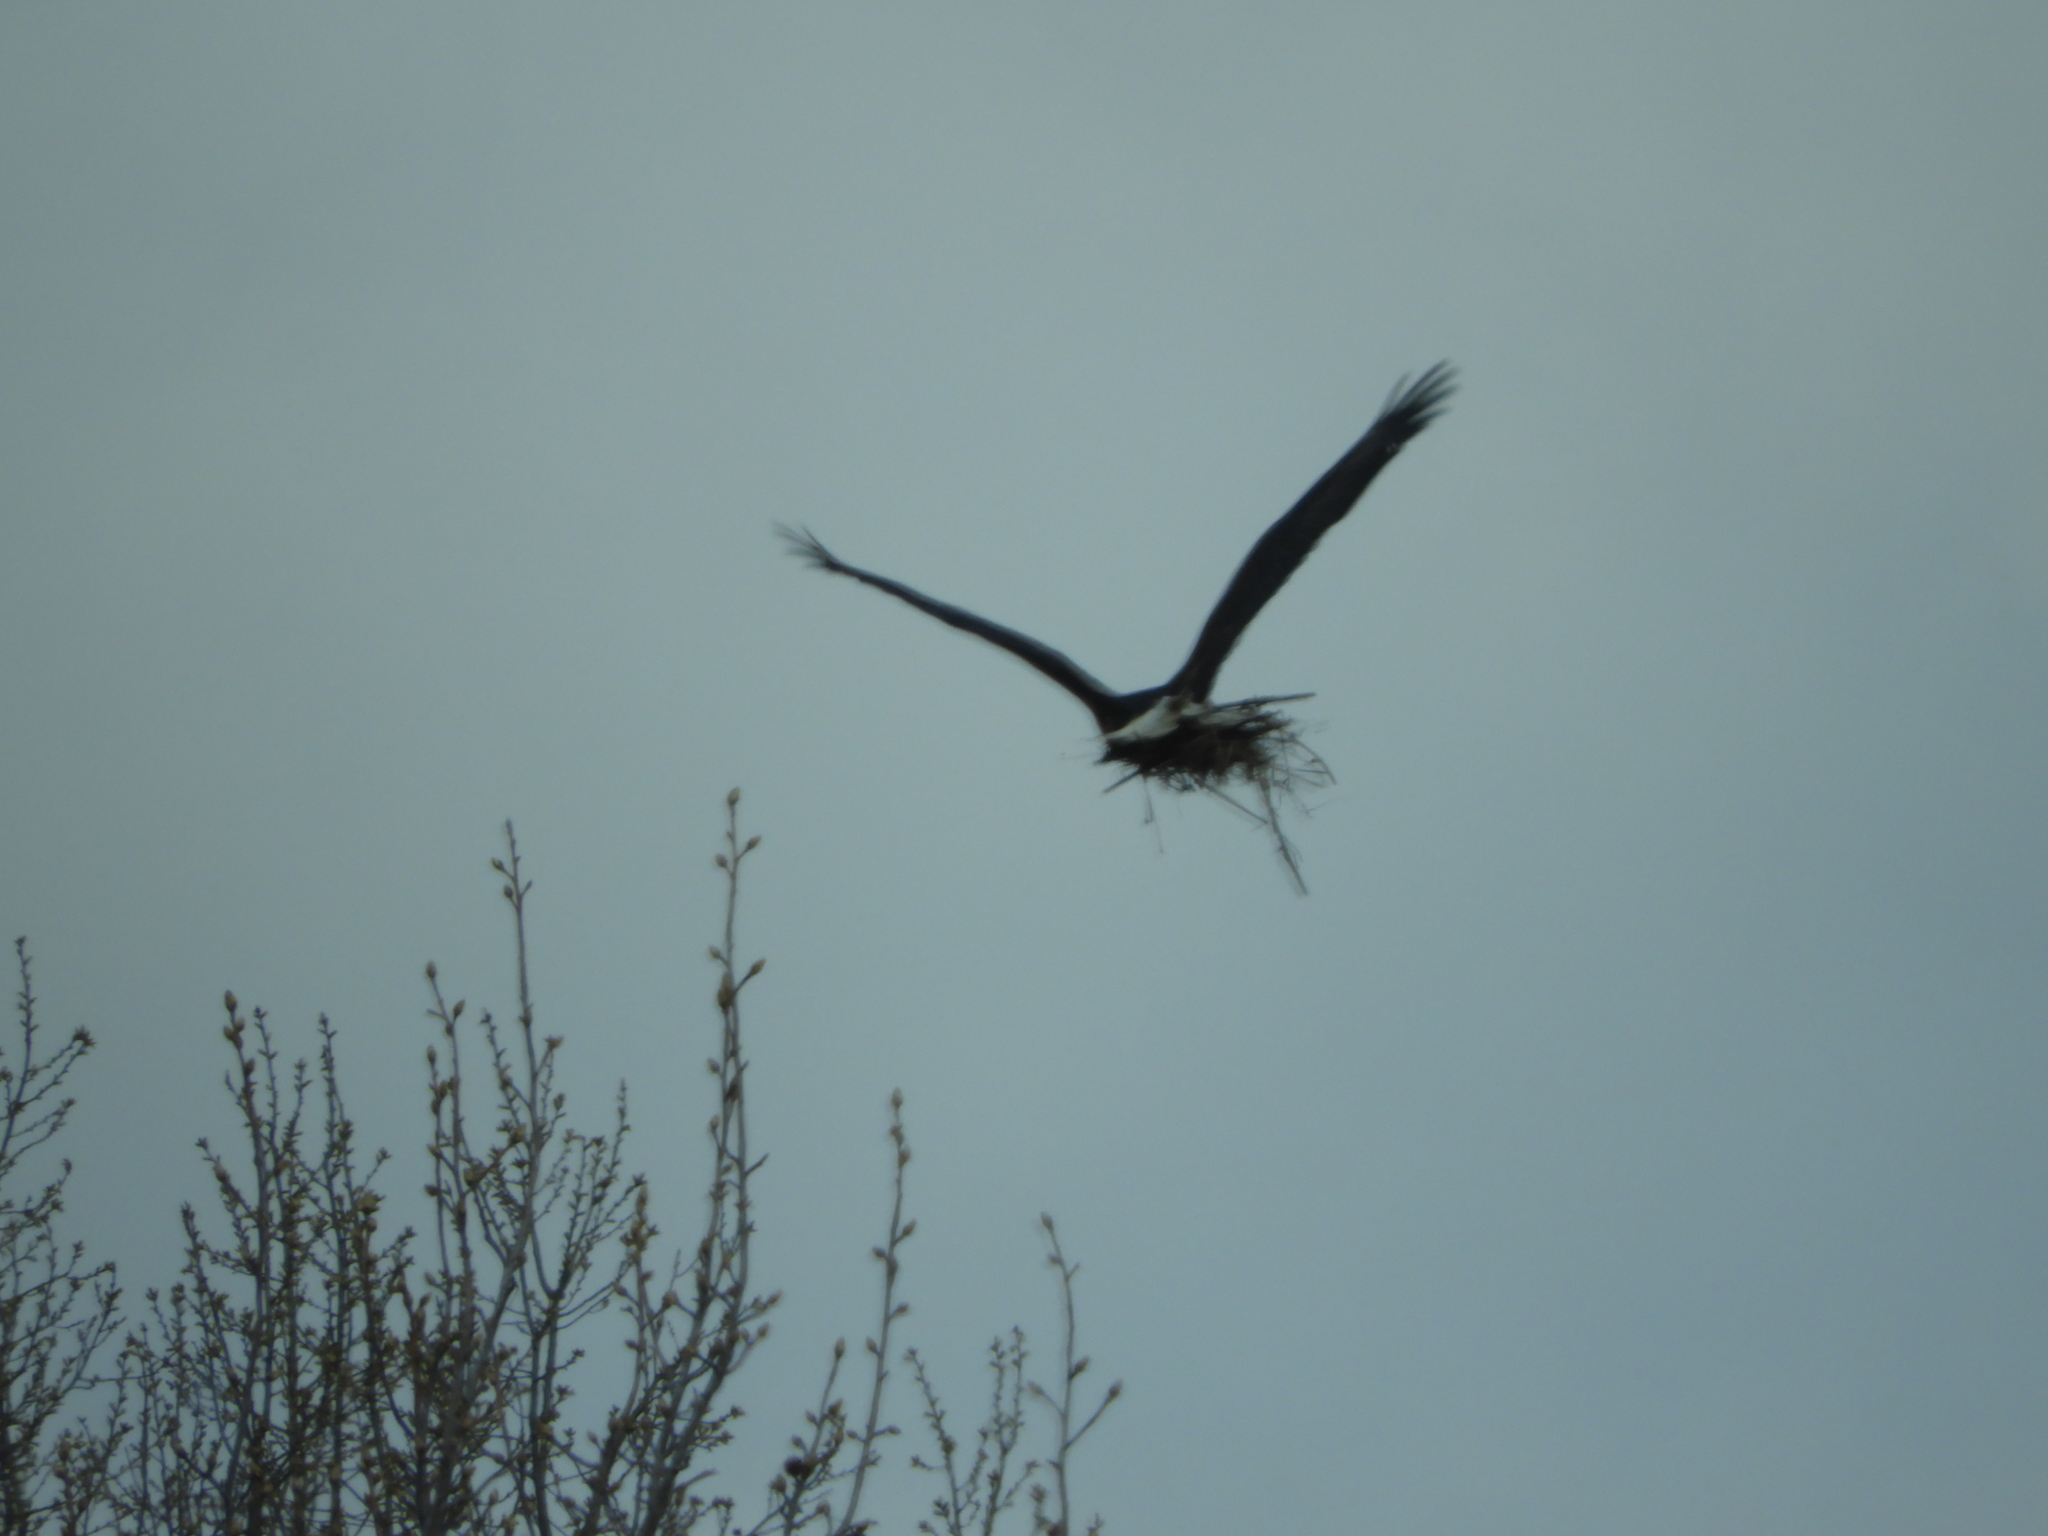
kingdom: Animalia
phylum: Chordata
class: Aves
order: Accipitriformes
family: Pandionidae
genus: Pandion
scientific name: Pandion haliaetus
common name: Osprey
